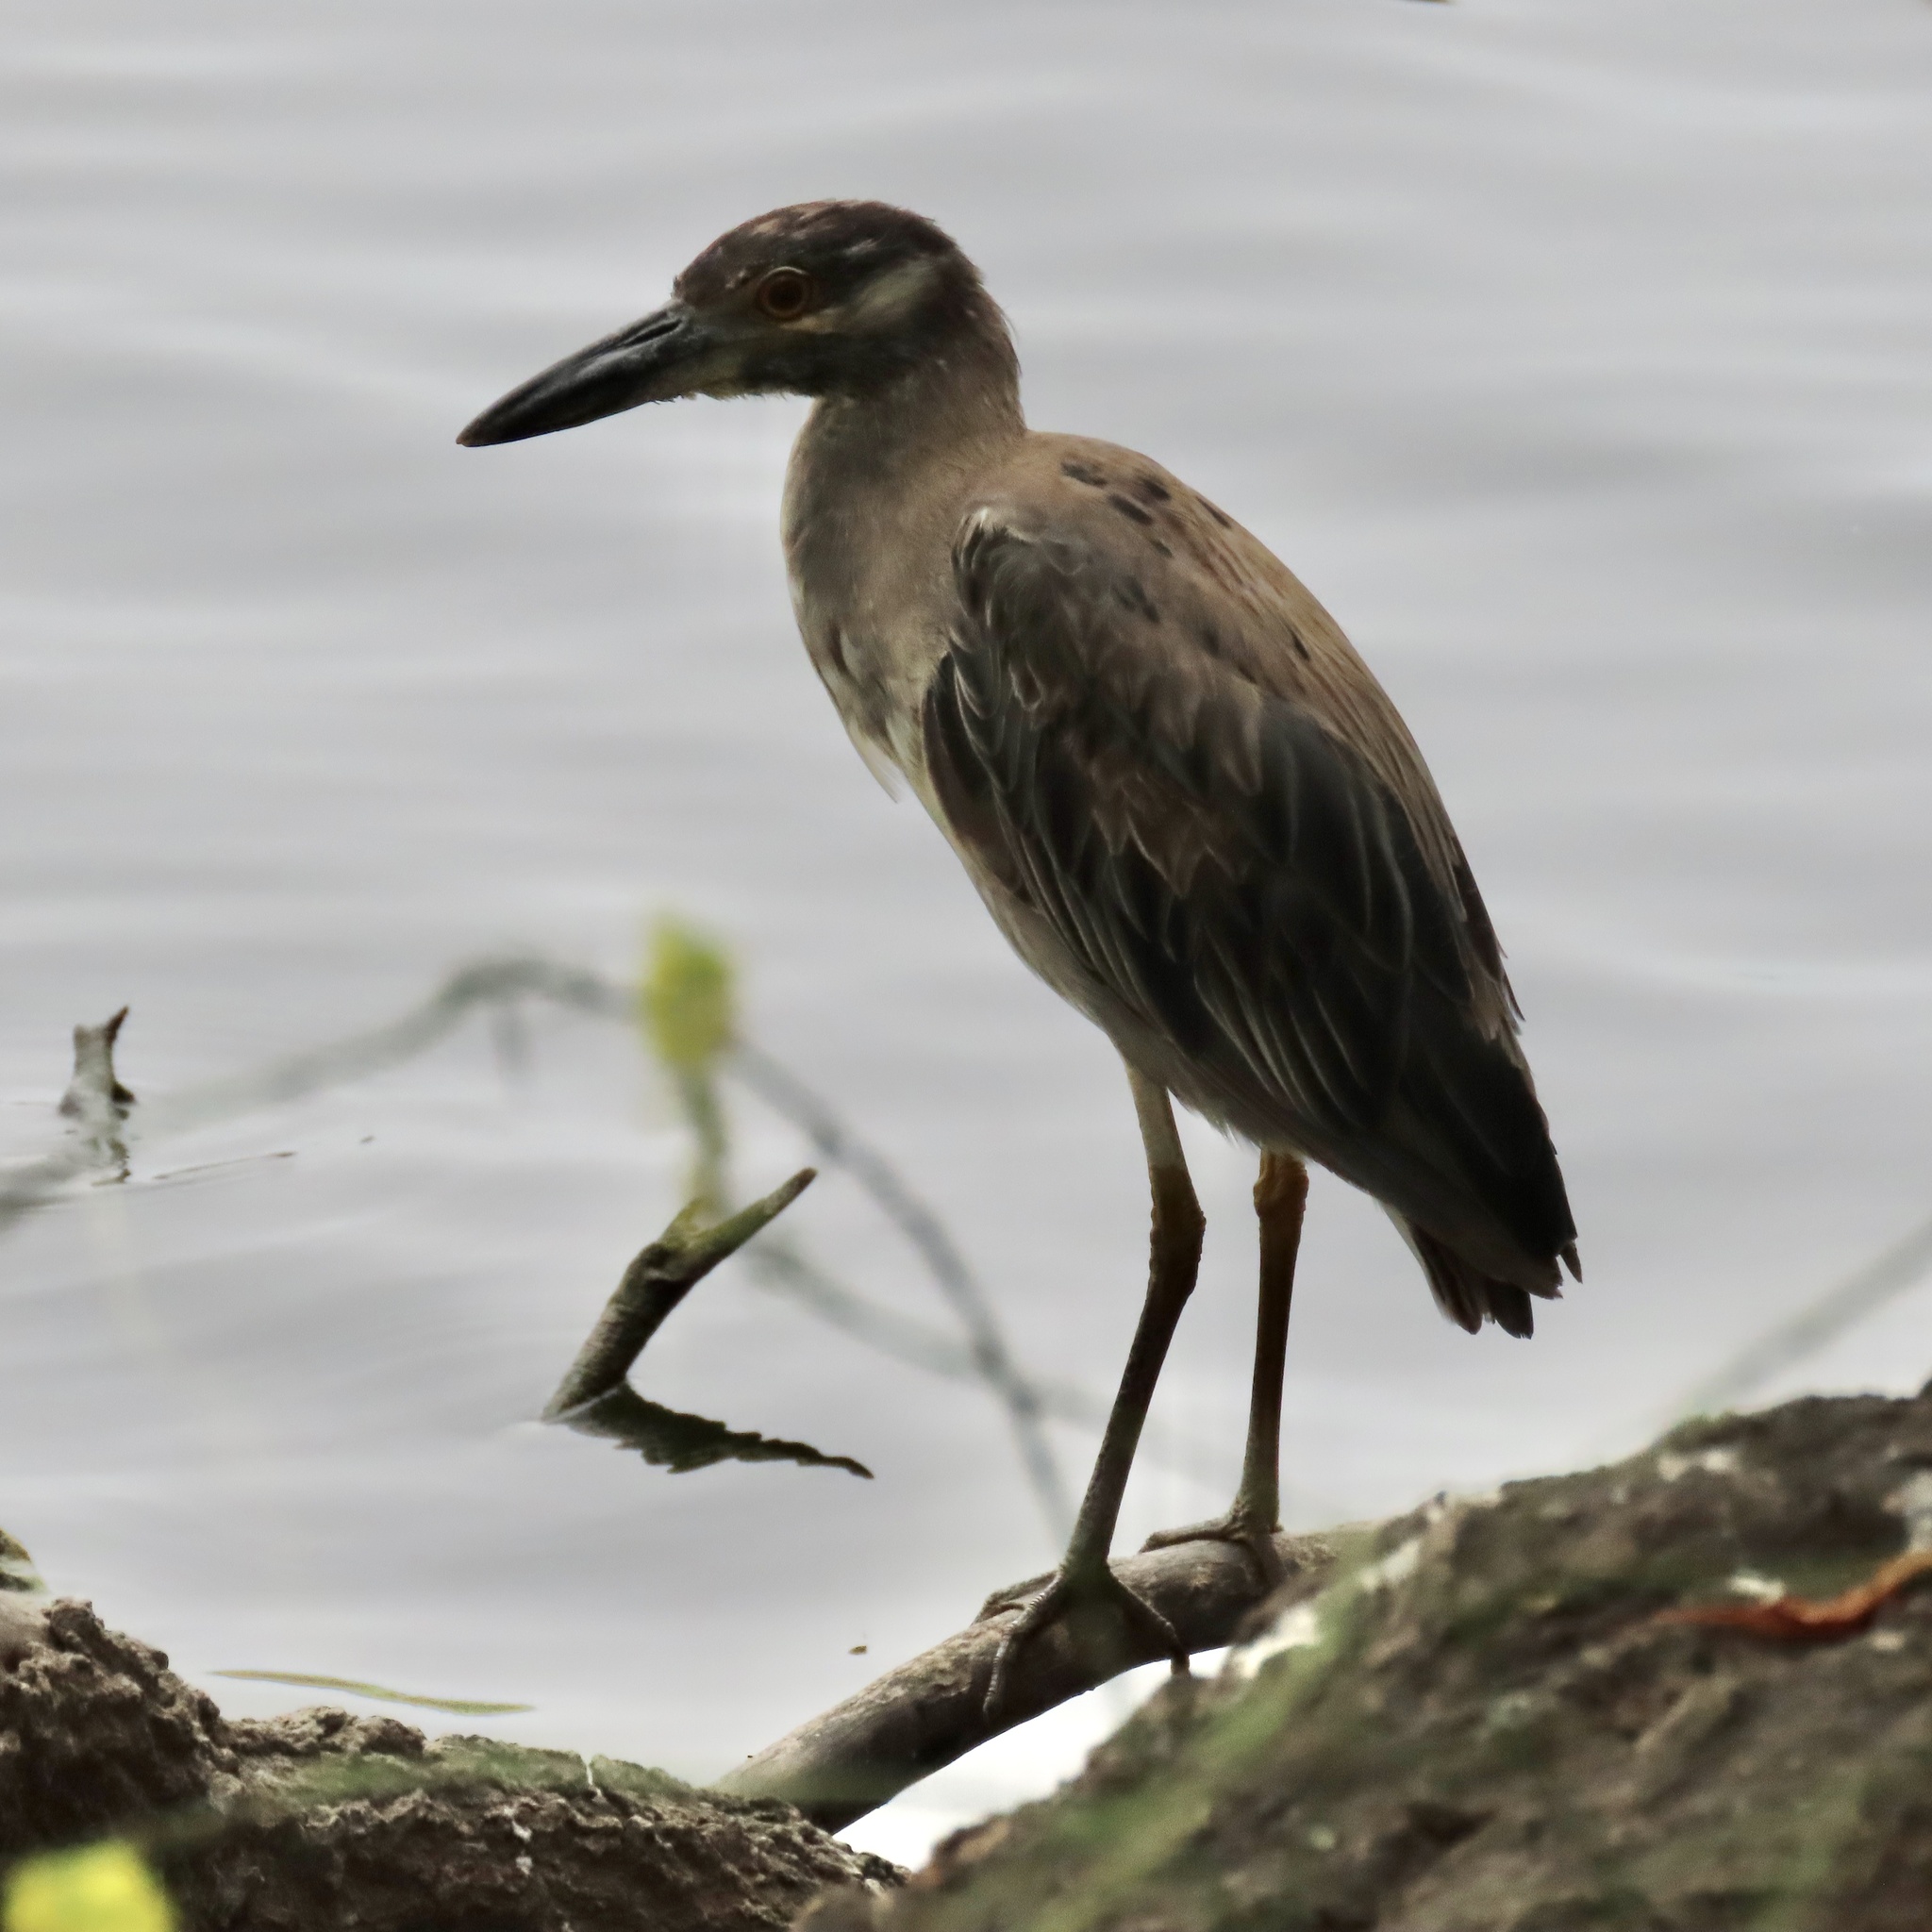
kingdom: Animalia
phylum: Chordata
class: Aves
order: Pelecaniformes
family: Ardeidae
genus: Nyctanassa
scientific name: Nyctanassa violacea
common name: Yellow-crowned night heron
